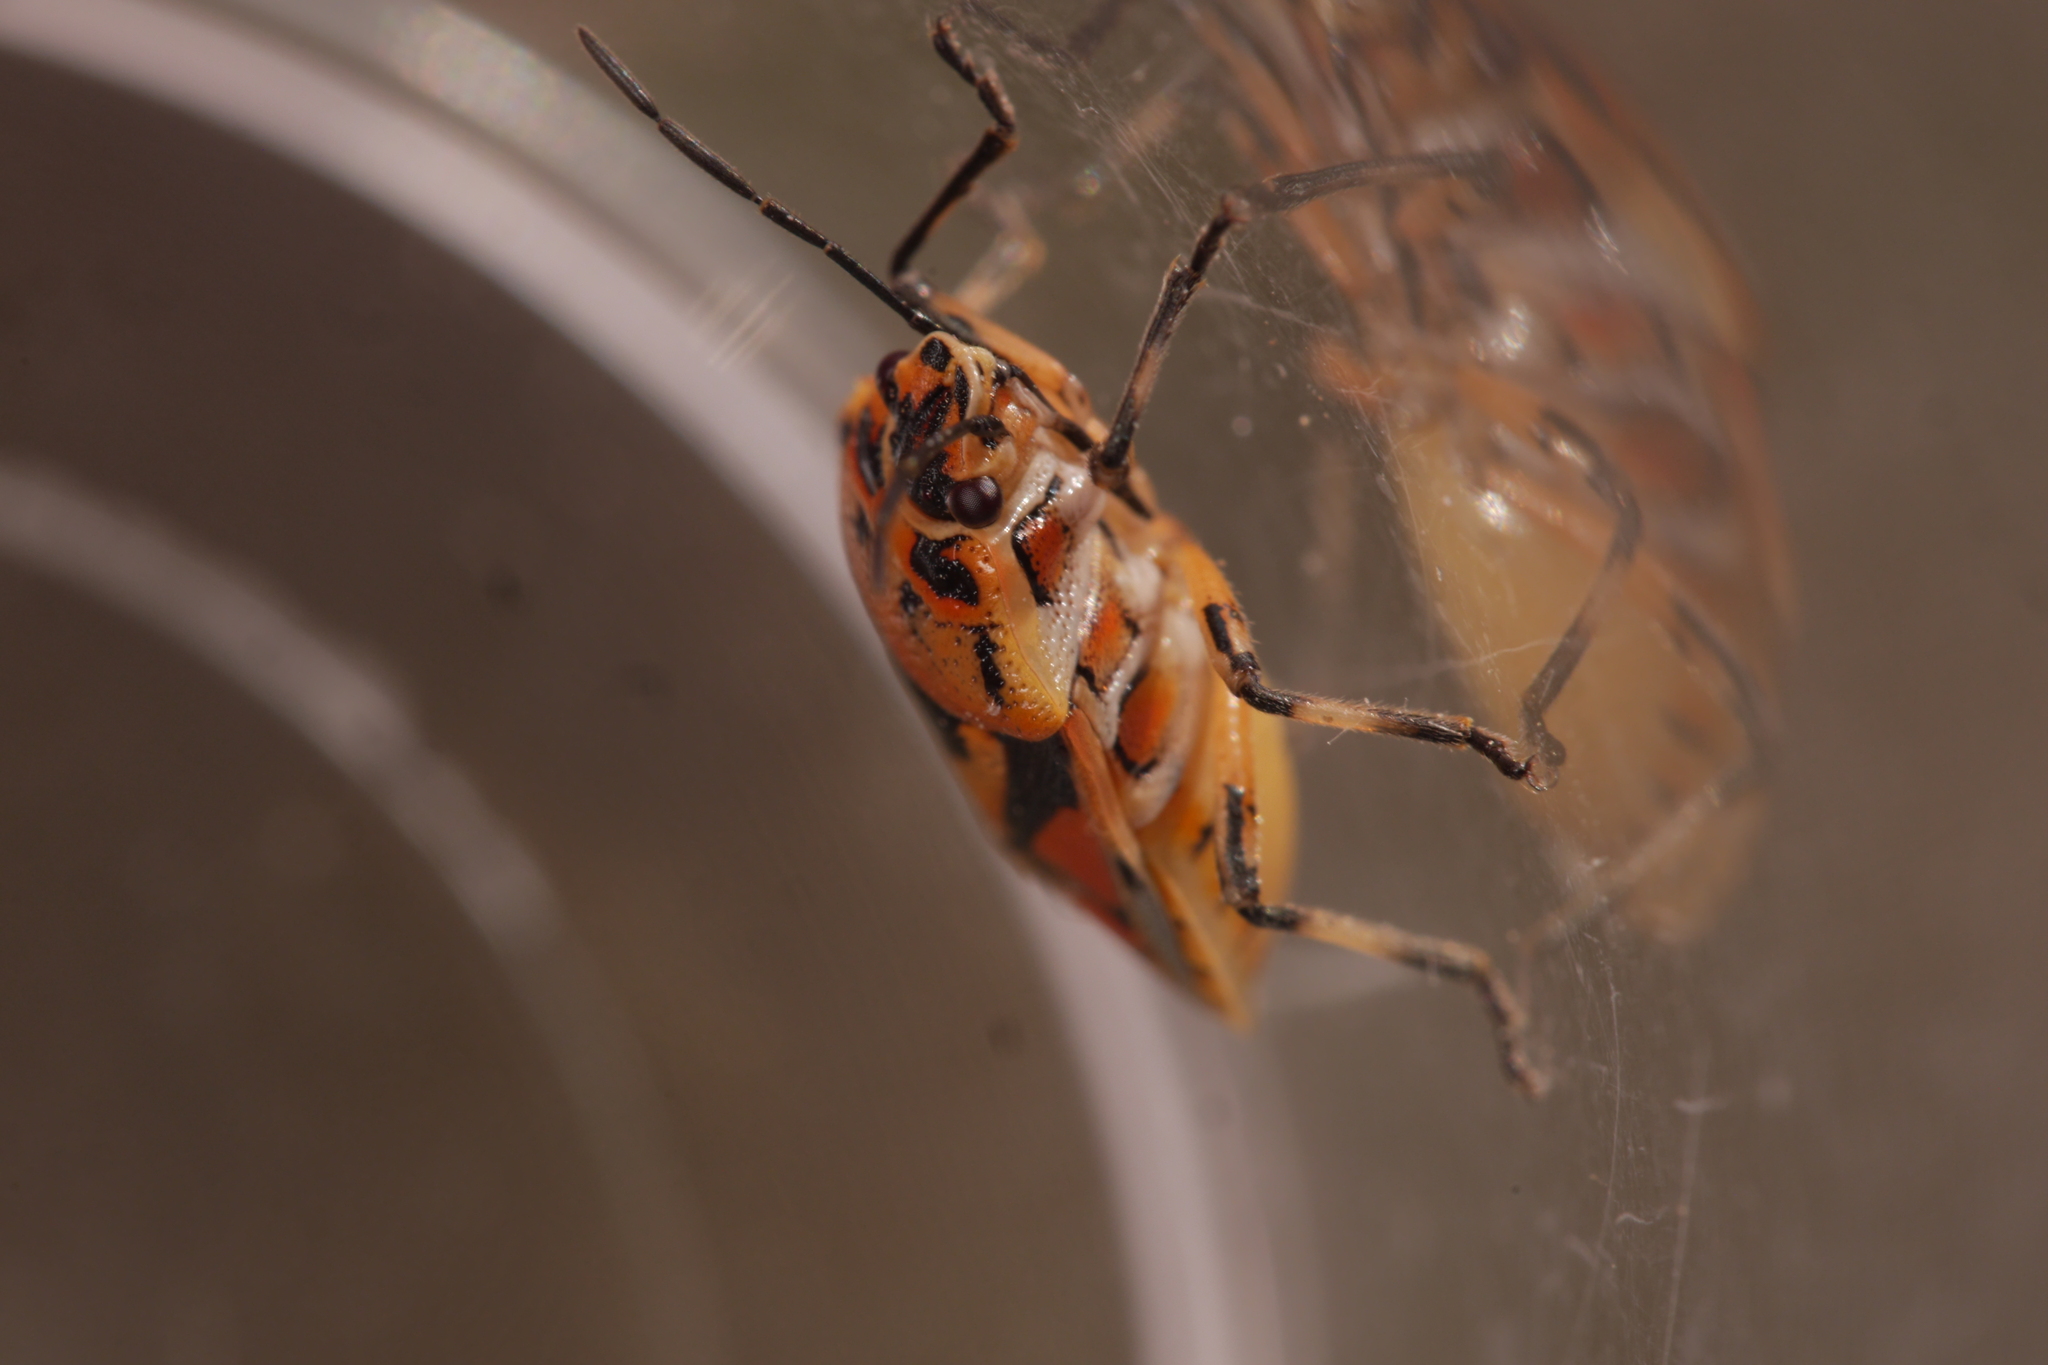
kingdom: Animalia
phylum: Arthropoda
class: Insecta
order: Hemiptera
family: Pentatomidae
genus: Eurydema
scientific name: Eurydema ornata
